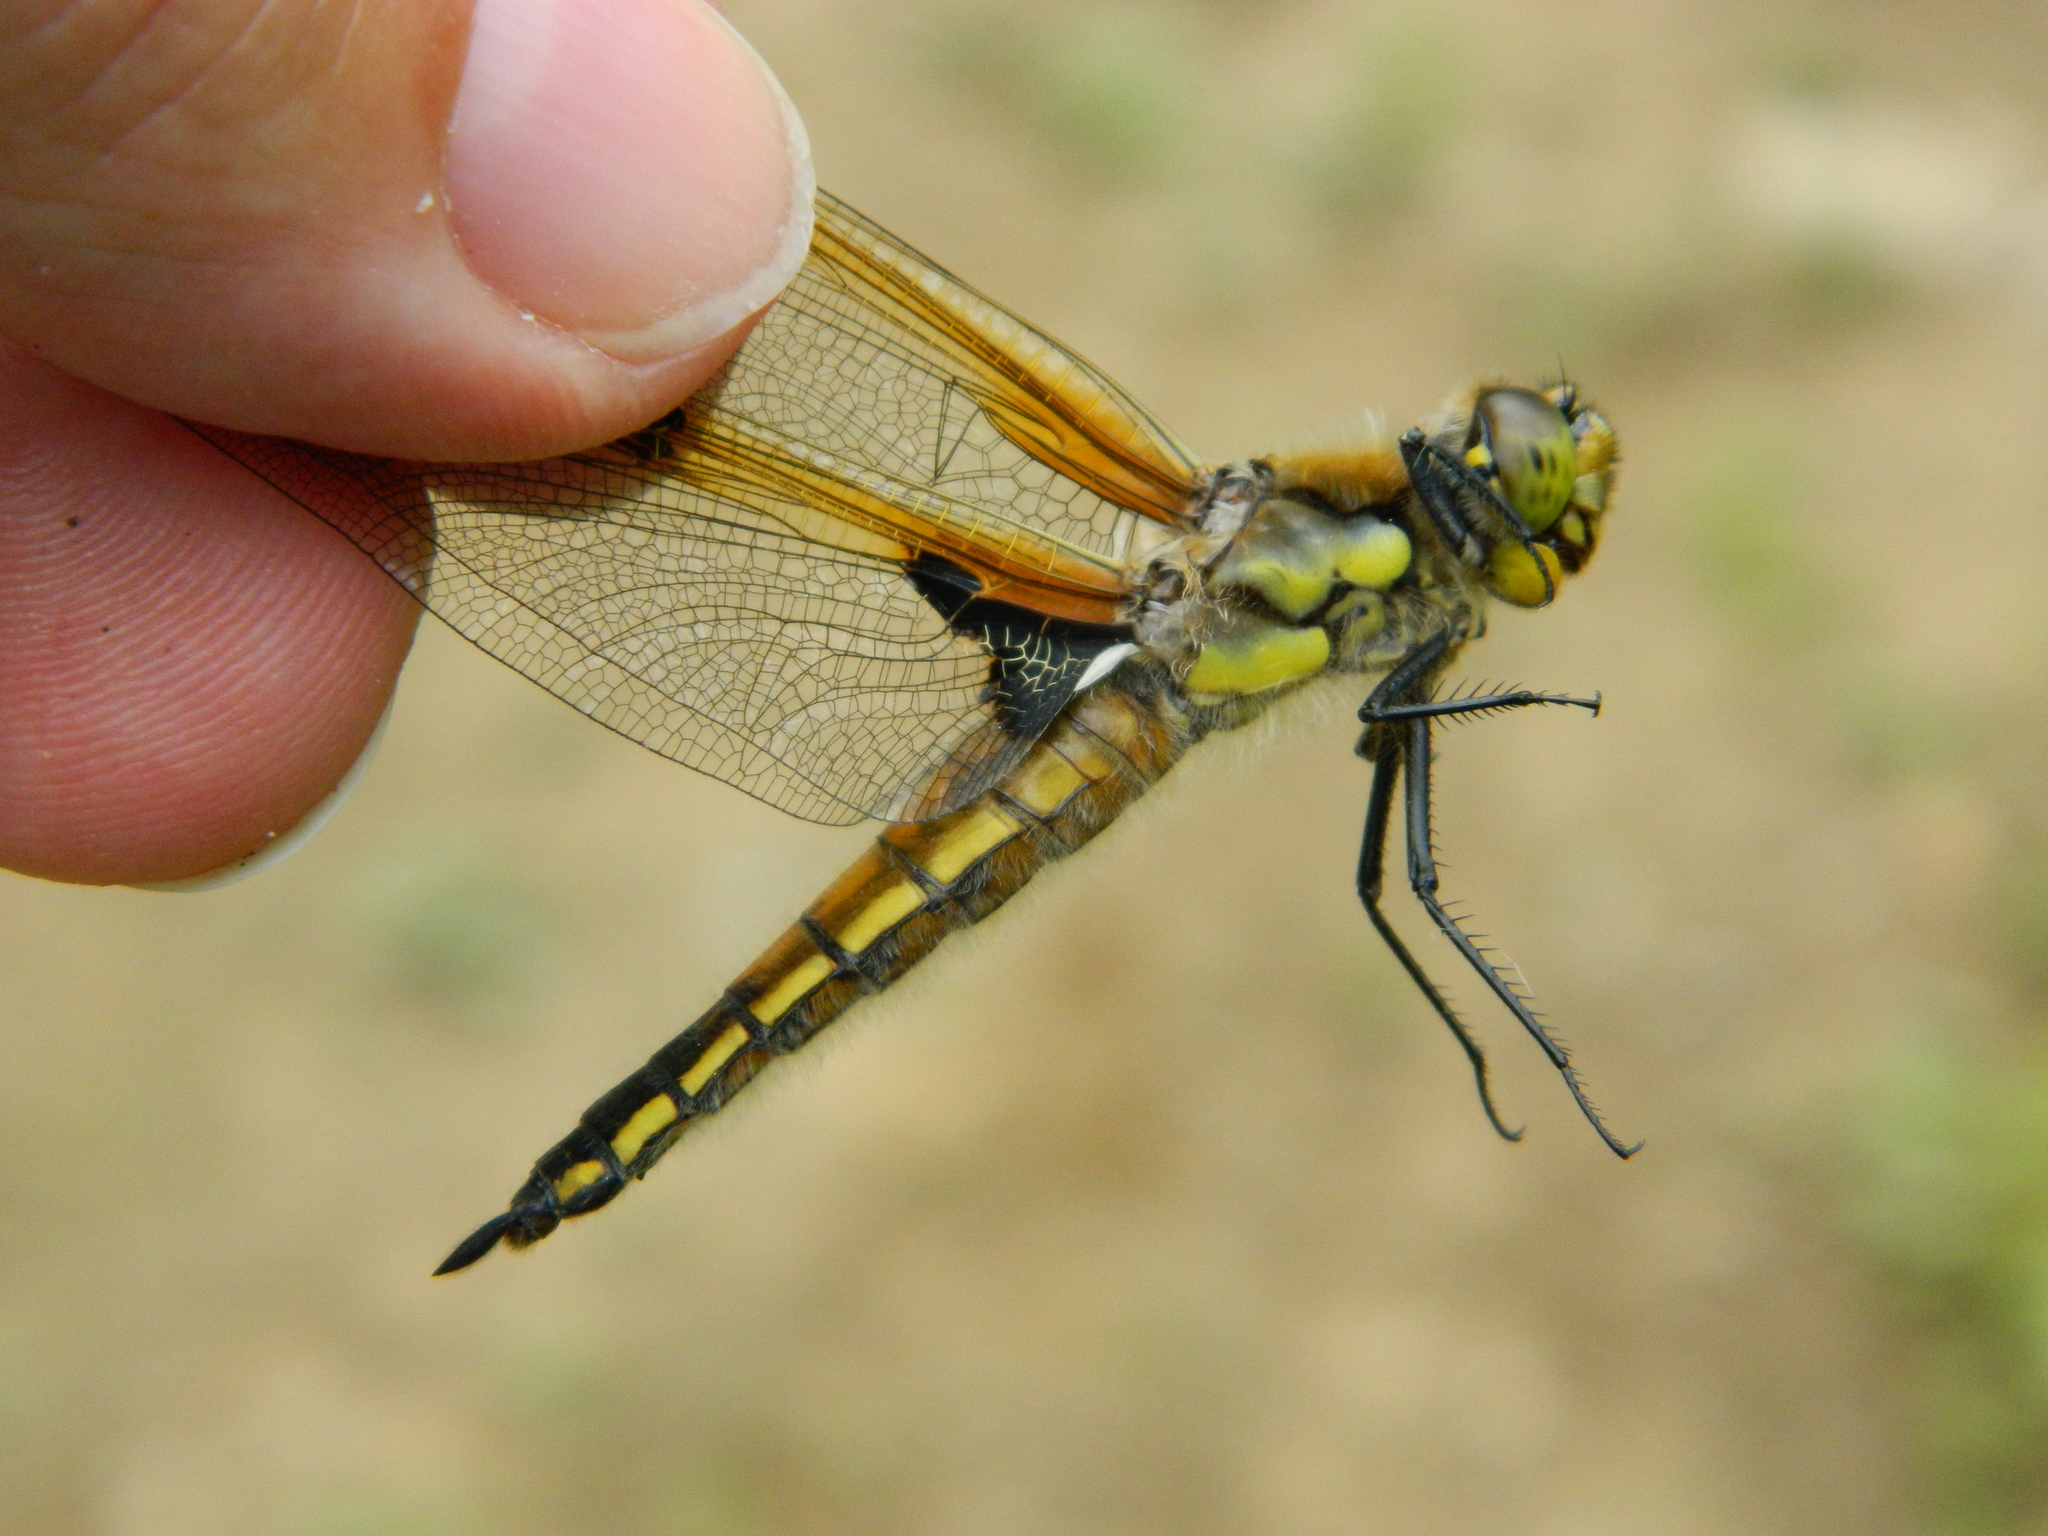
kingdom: Animalia
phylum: Arthropoda
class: Insecta
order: Odonata
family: Libellulidae
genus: Libellula
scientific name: Libellula quadrimaculata
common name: Four-spotted chaser
